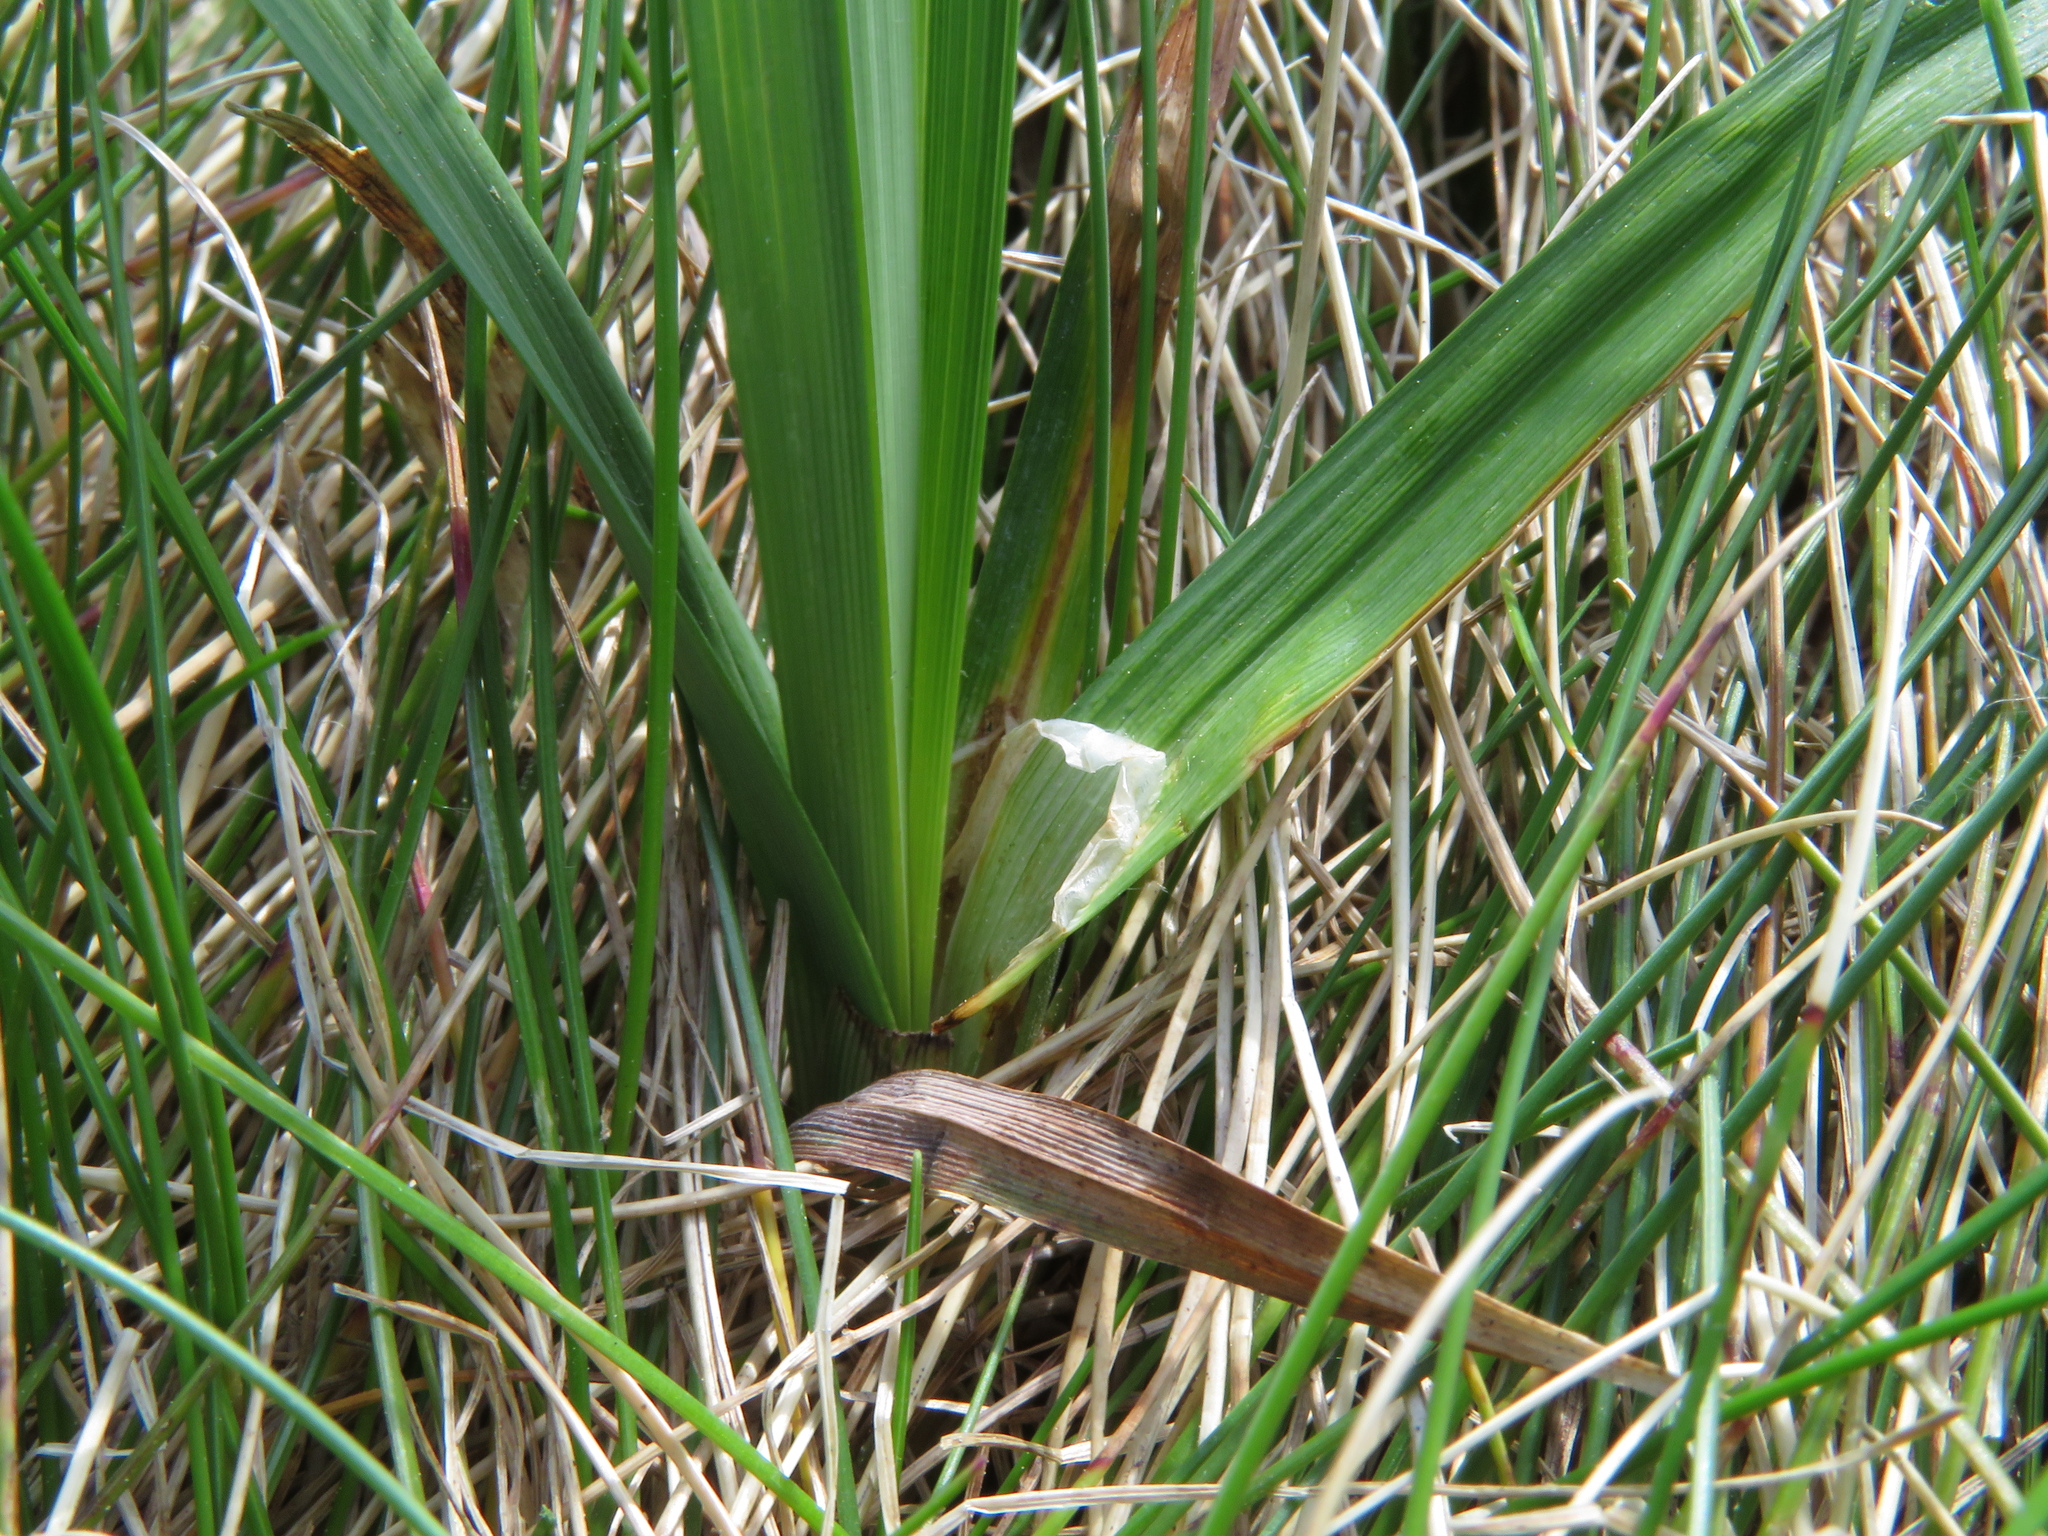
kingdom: Plantae
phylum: Tracheophyta
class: Liliopsida
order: Poales
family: Cyperaceae
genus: Carex
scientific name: Carex bigelowii
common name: Stiff sedge
